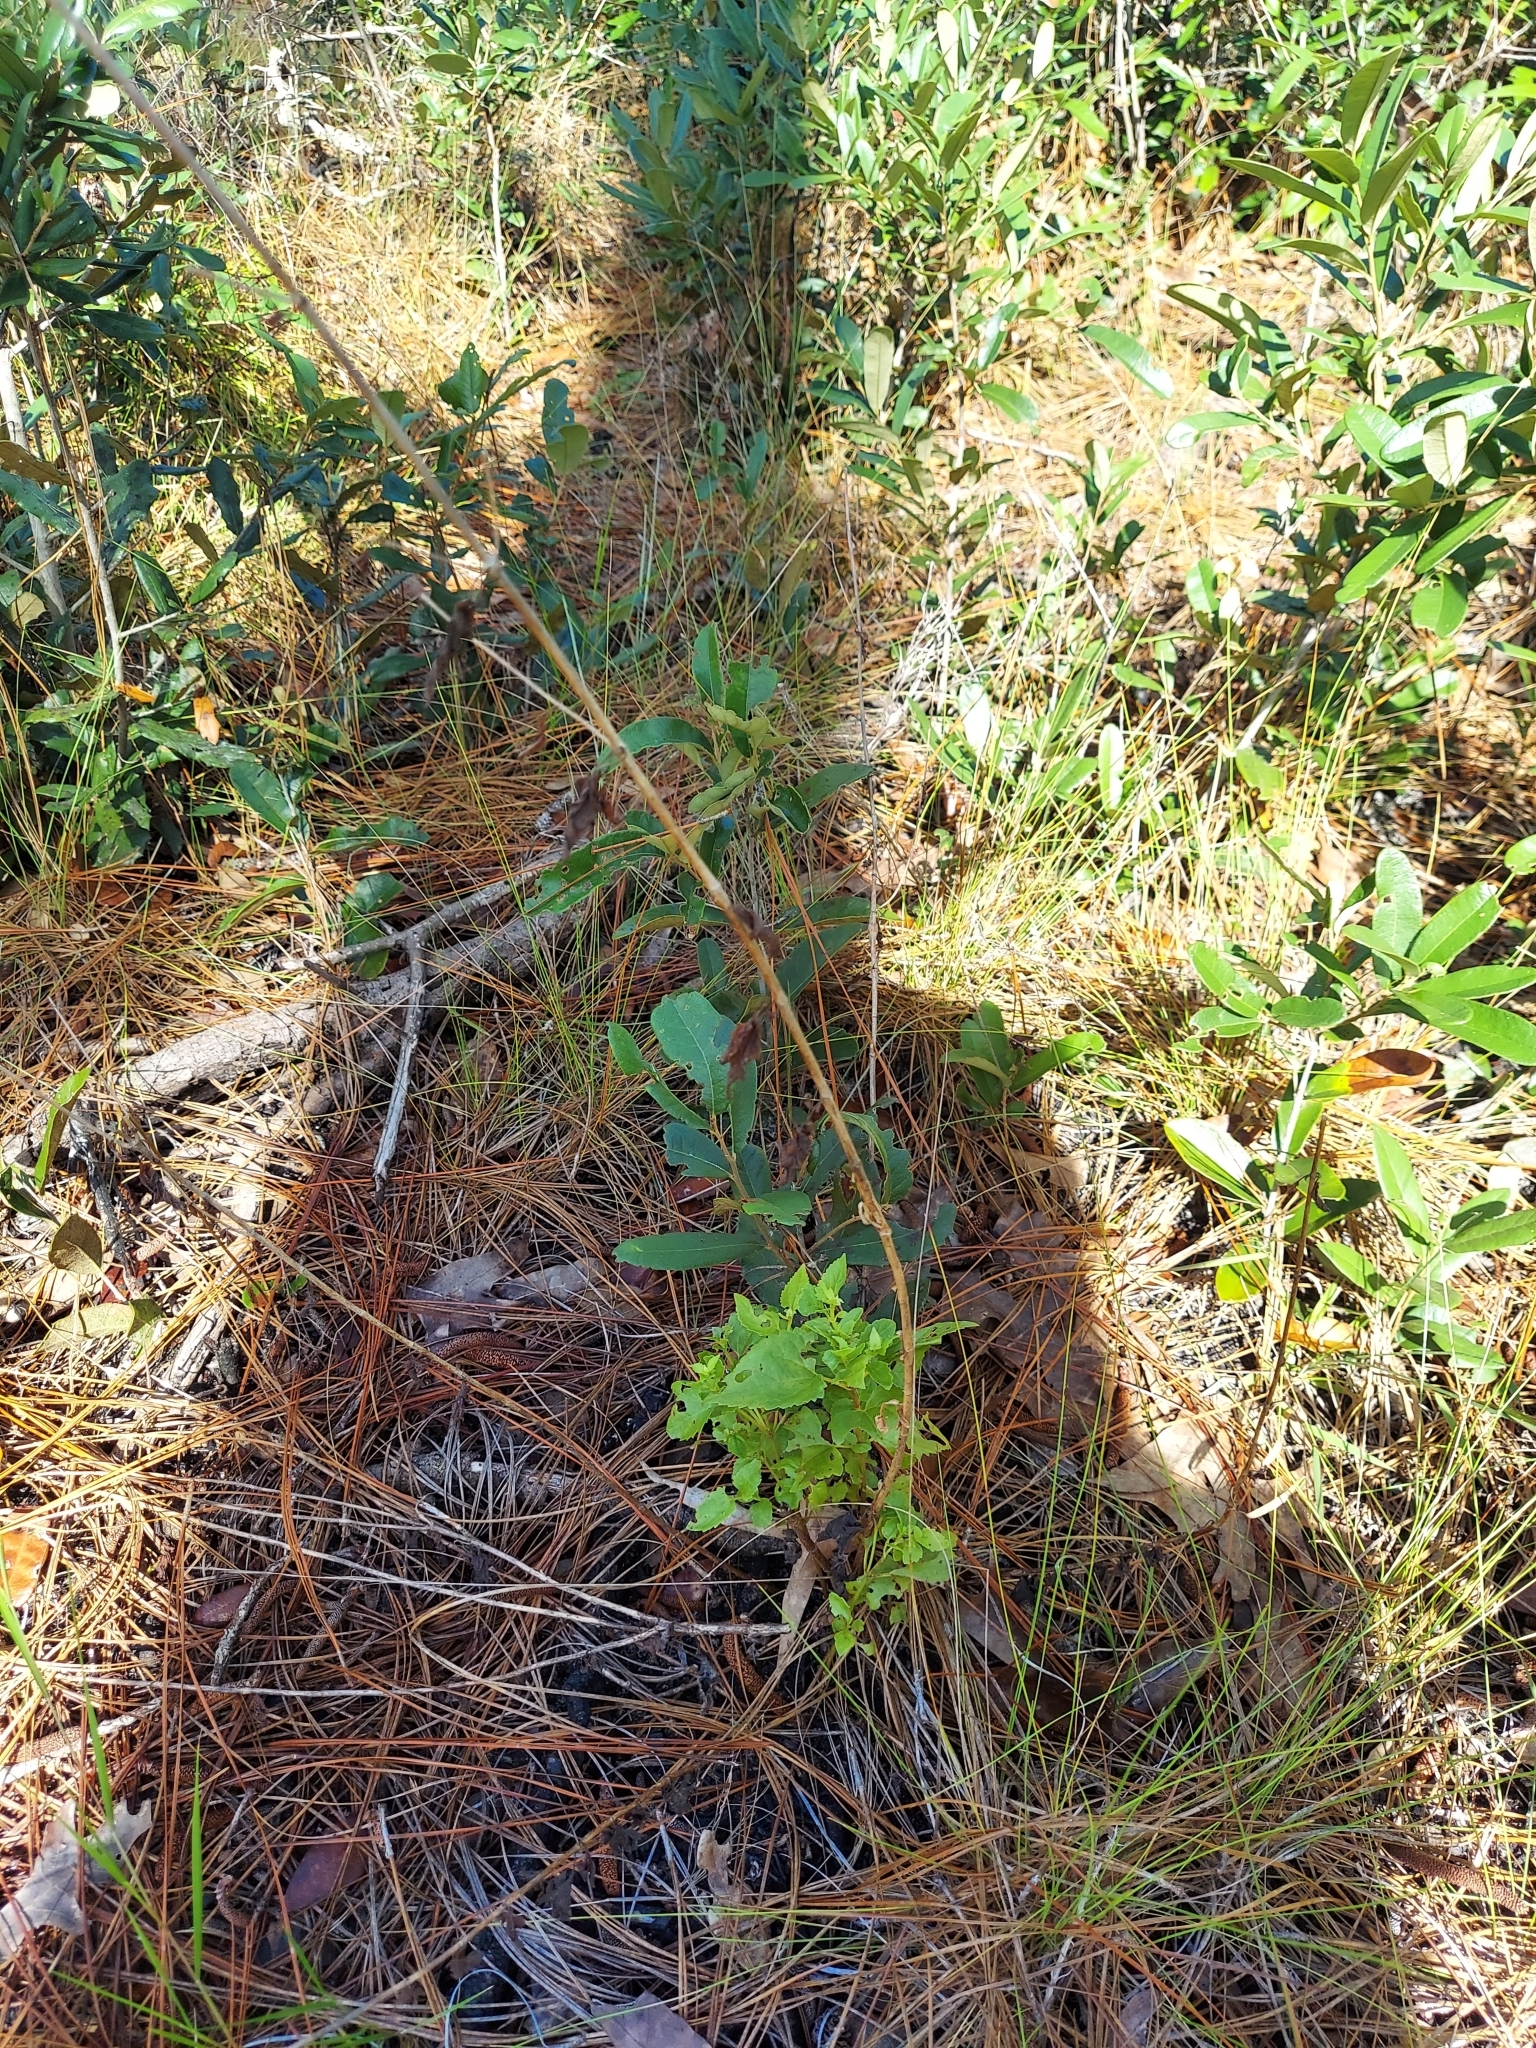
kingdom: Plantae
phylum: Tracheophyta
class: Magnoliopsida
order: Asterales
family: Asteraceae
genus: Ageratina
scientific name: Ageratina jucunda
